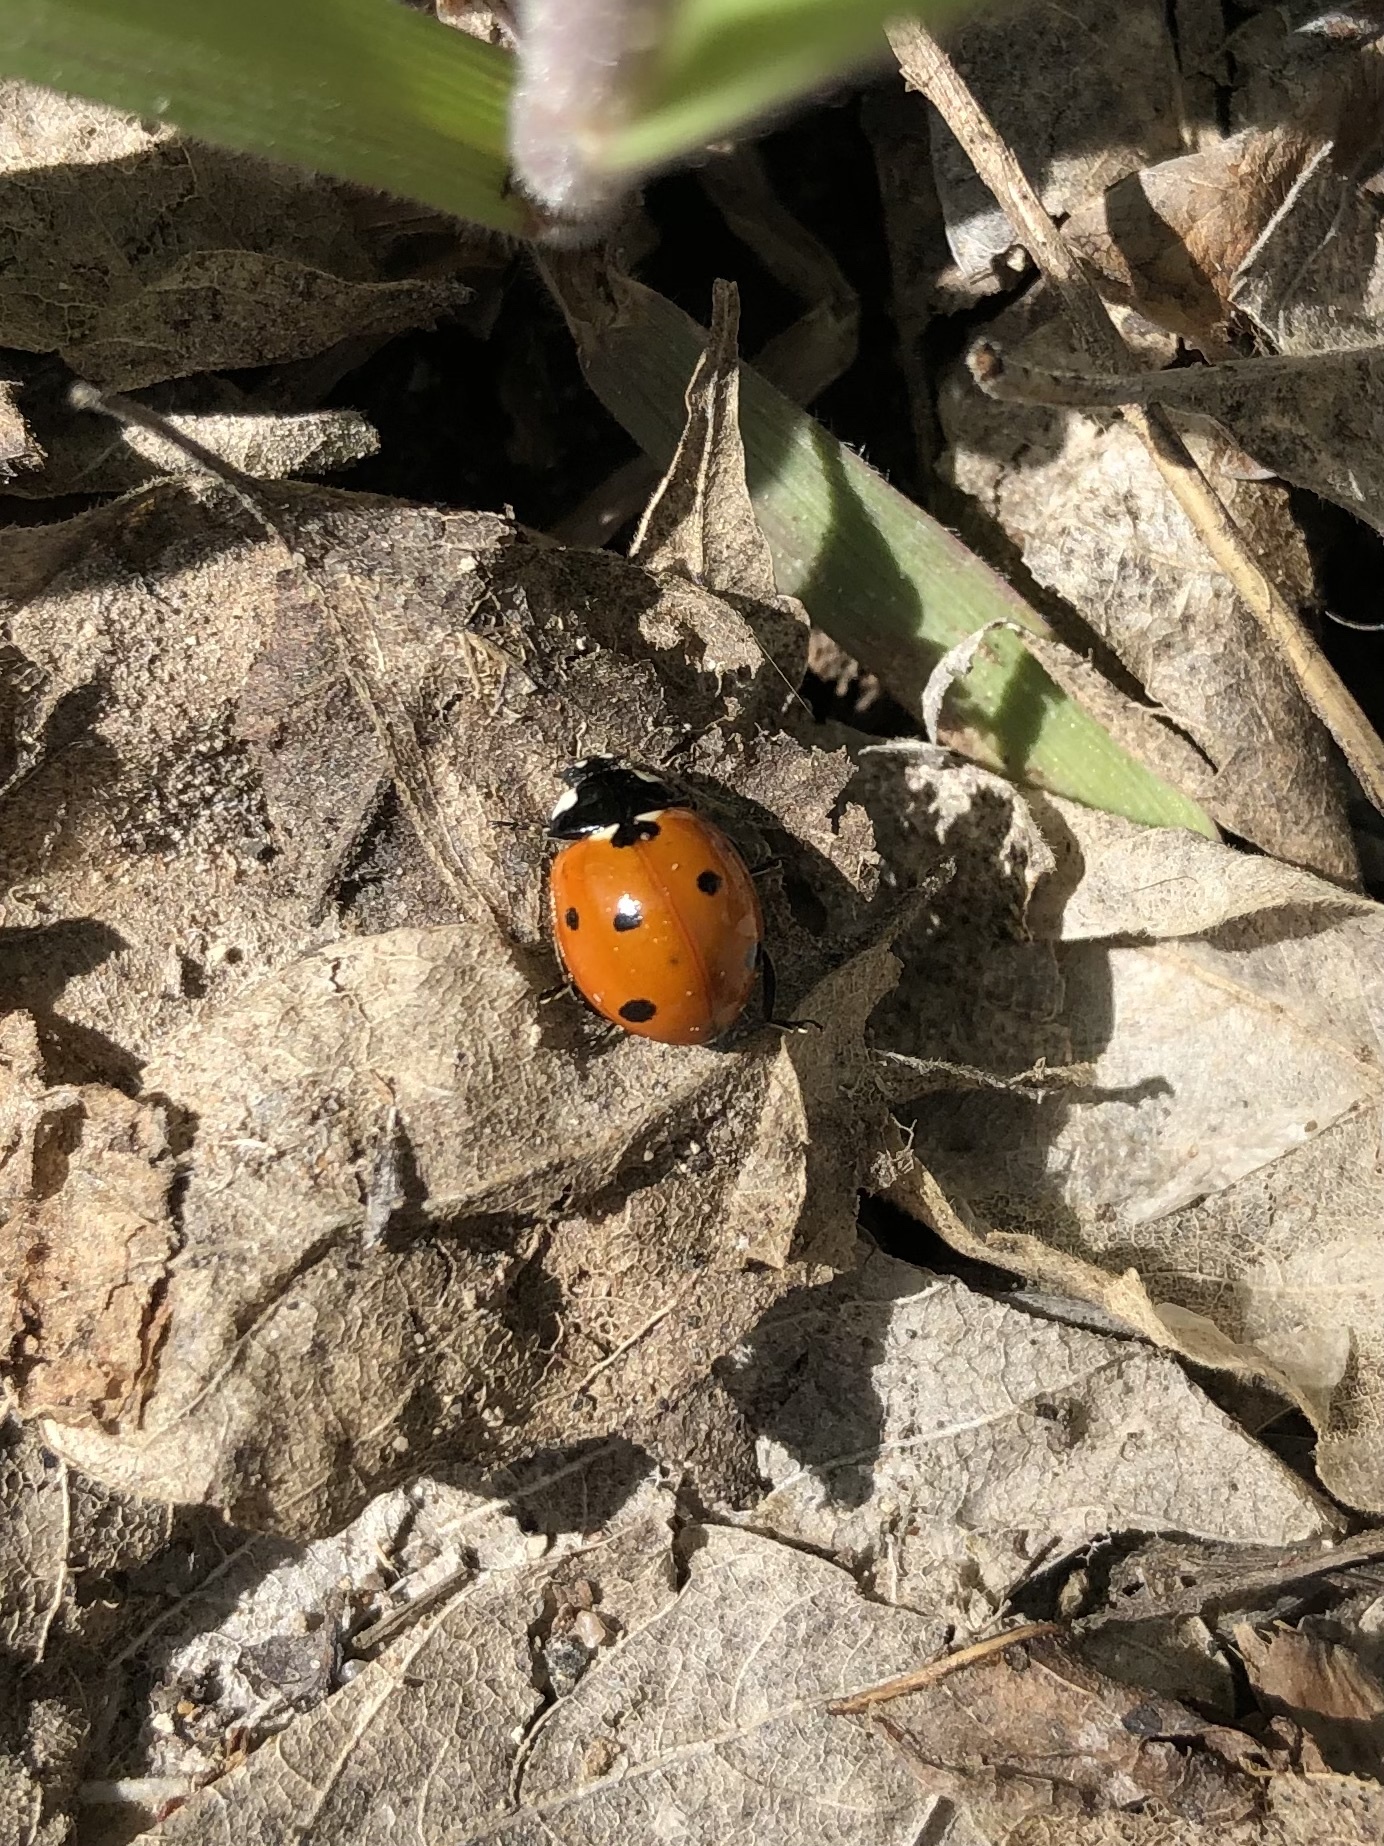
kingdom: Animalia
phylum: Arthropoda
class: Insecta
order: Coleoptera
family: Coccinellidae
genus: Coccinella
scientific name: Coccinella septempunctata
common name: Sevenspotted lady beetle
